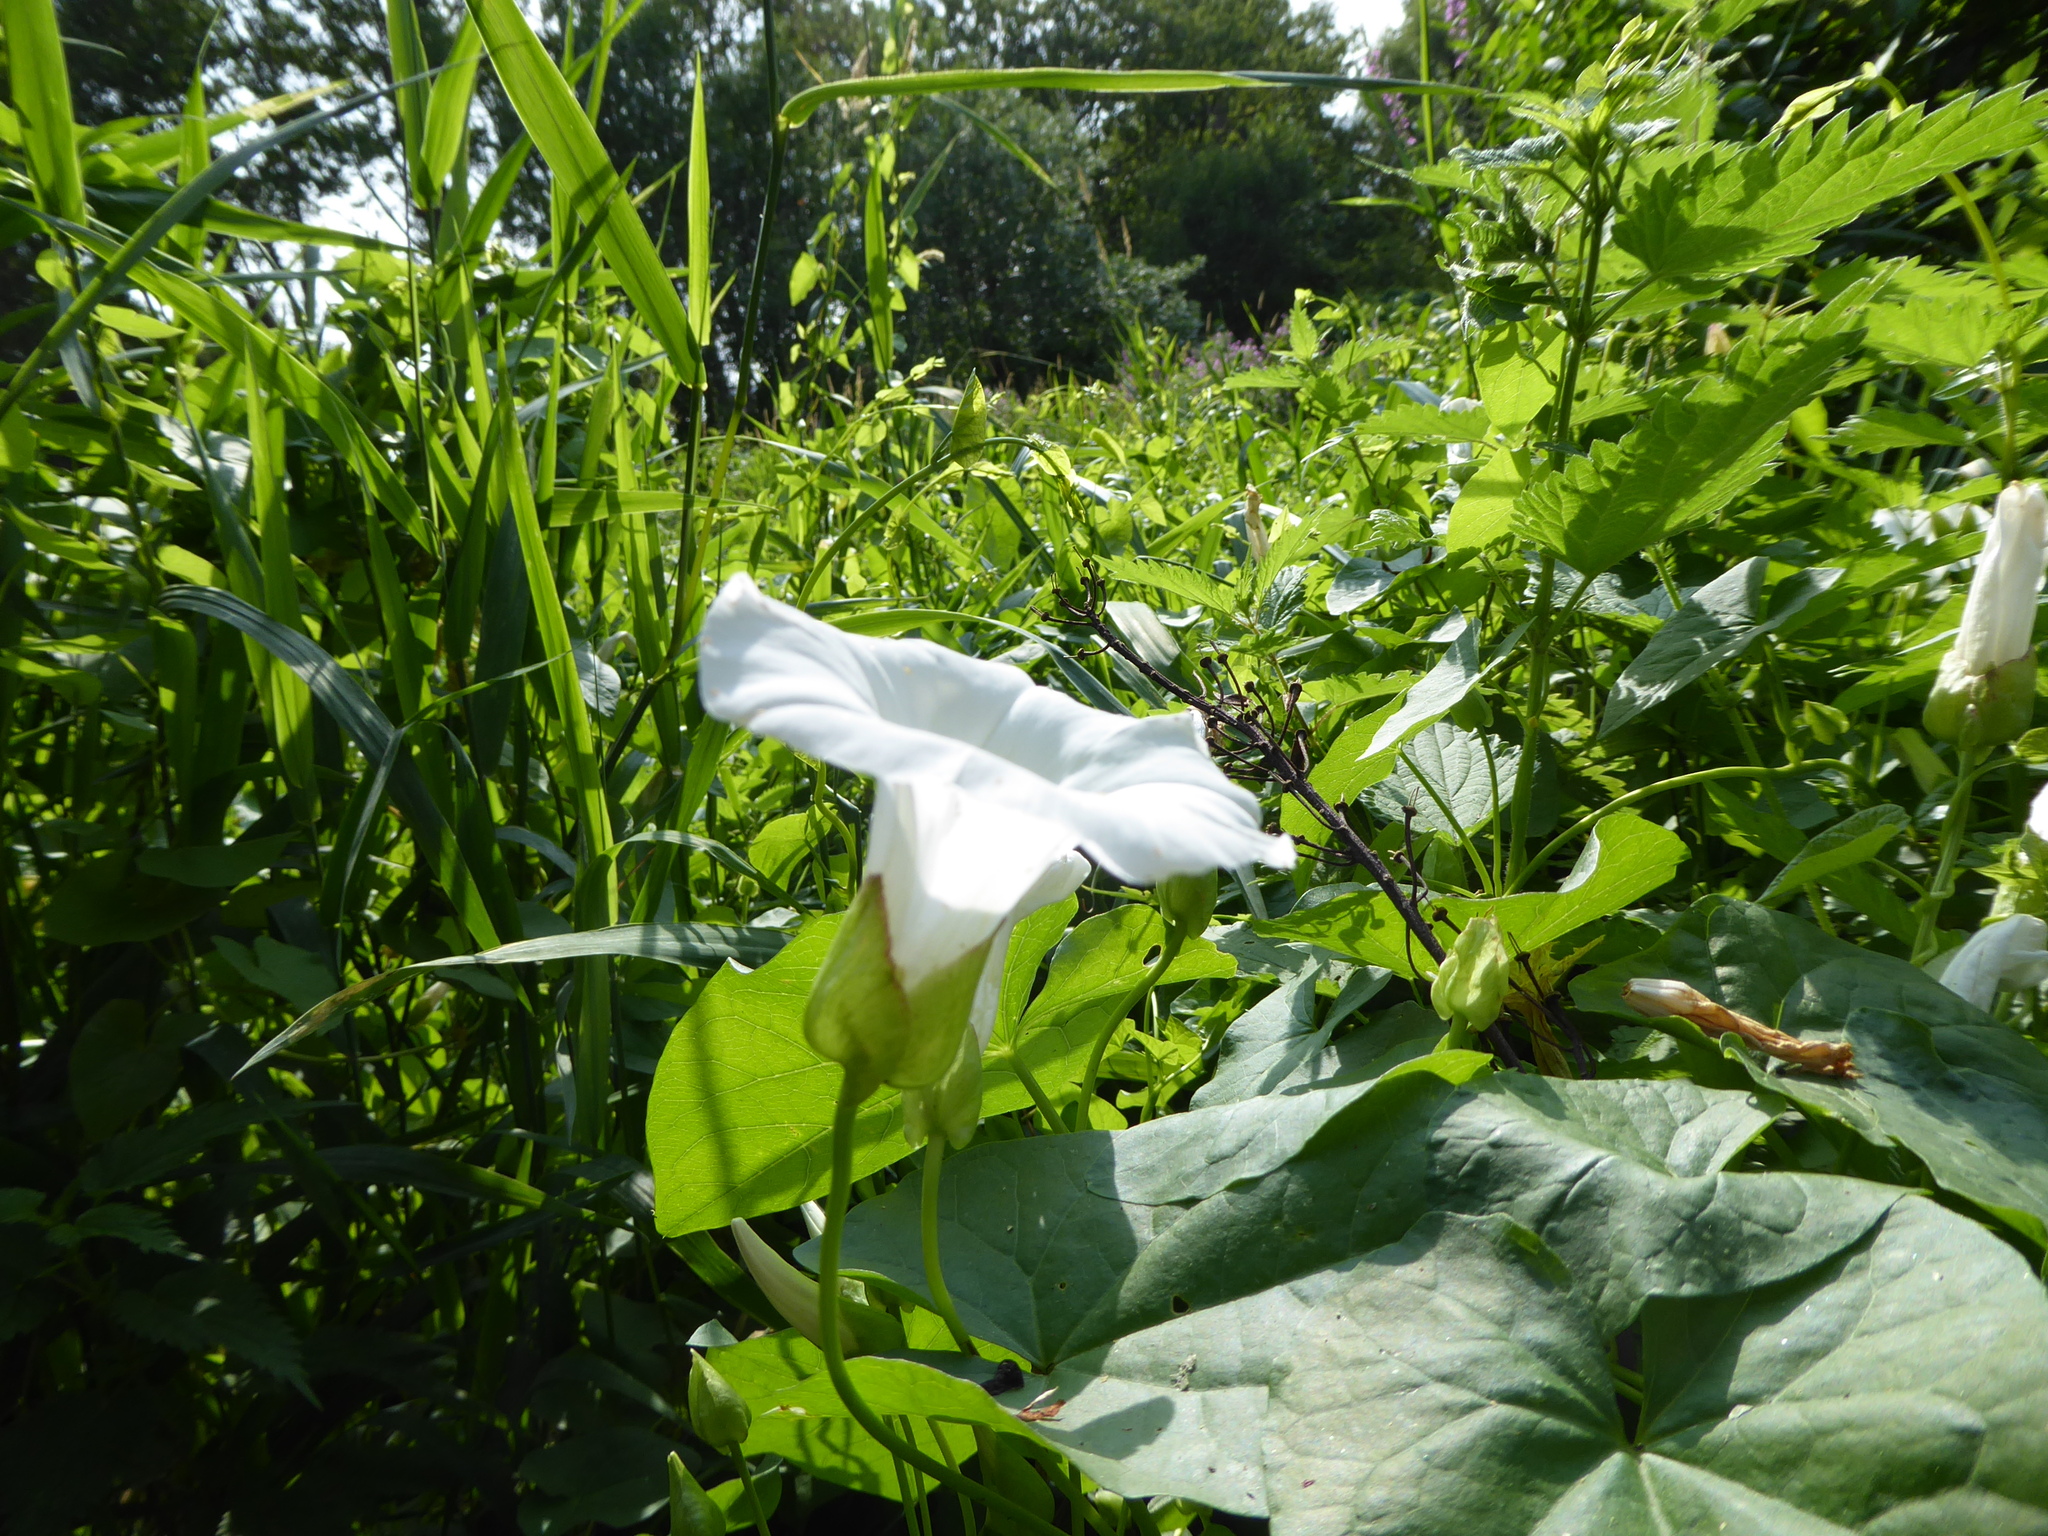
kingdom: Plantae
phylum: Tracheophyta
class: Magnoliopsida
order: Solanales
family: Convolvulaceae
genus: Calystegia
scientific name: Calystegia silvatica
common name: Large bindweed
